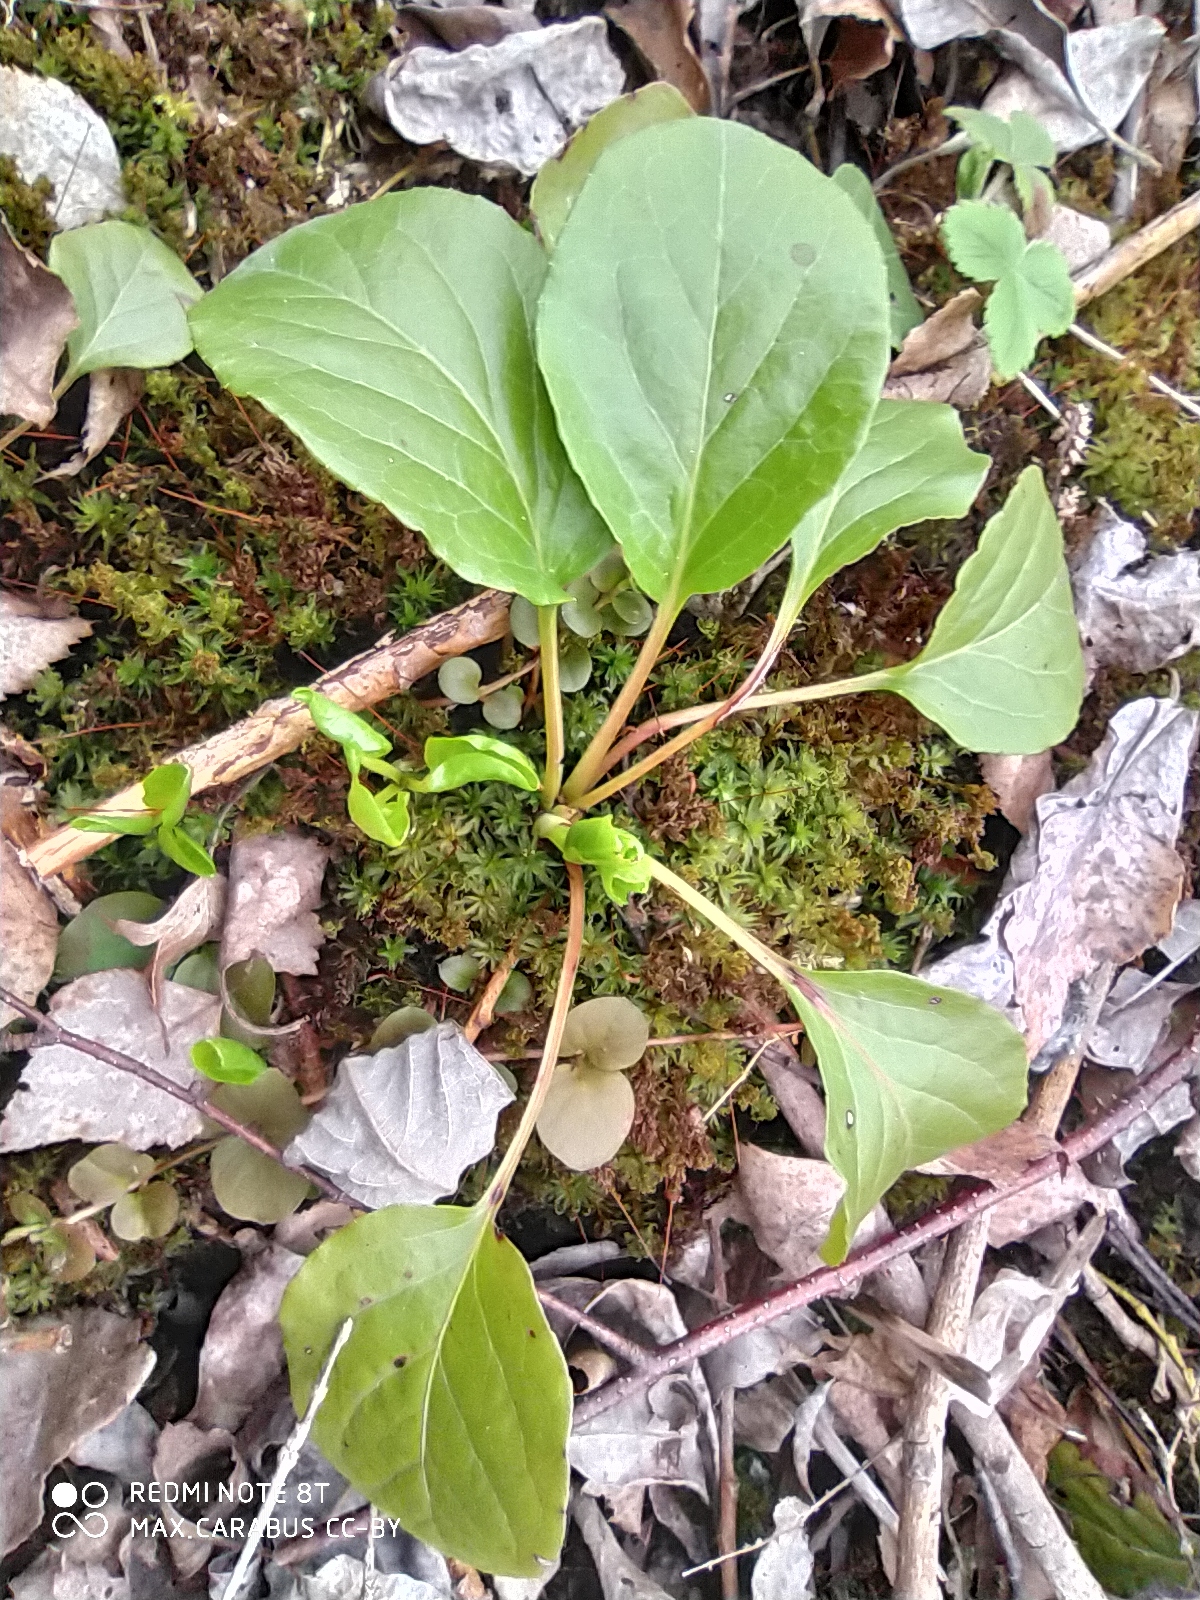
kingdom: Plantae
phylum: Tracheophyta
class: Magnoliopsida
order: Ericales
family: Ericaceae
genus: Pyrola
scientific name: Pyrola rotundifolia
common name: Round-leaved wintergreen
